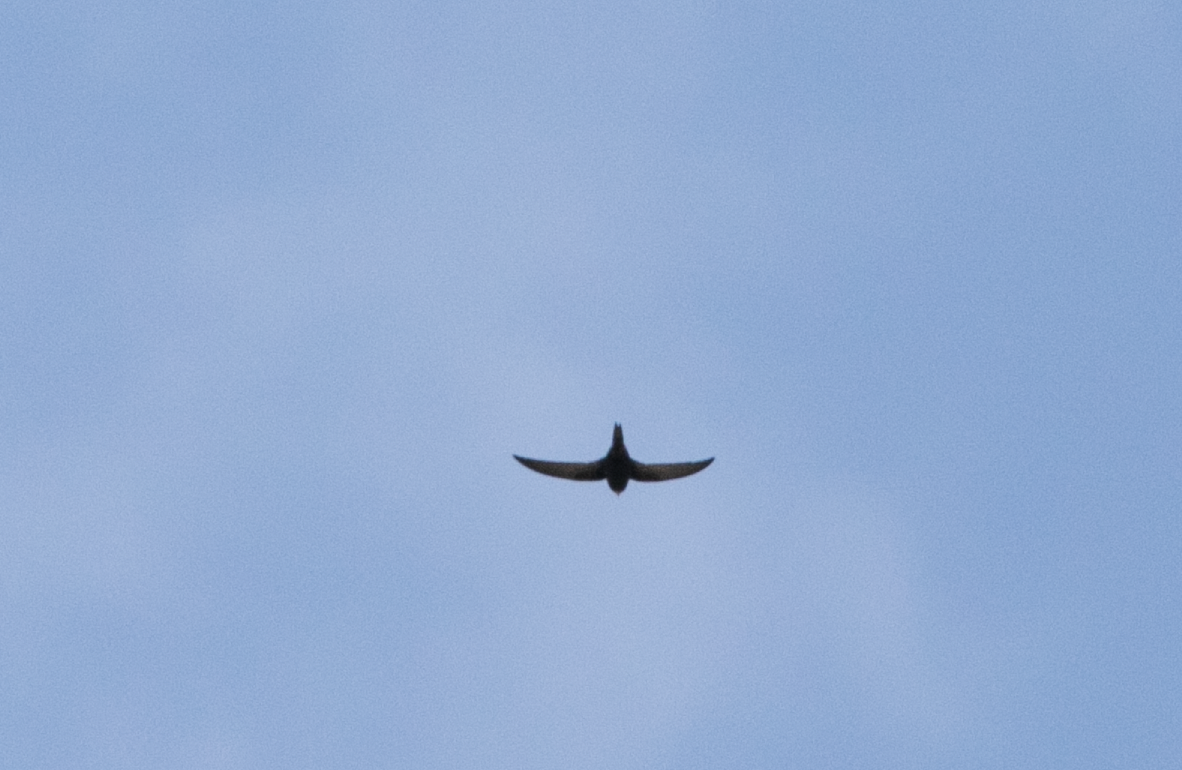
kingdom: Animalia
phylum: Chordata
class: Aves
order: Apodiformes
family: Apodidae
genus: Apus
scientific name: Apus apus
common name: Common swift
